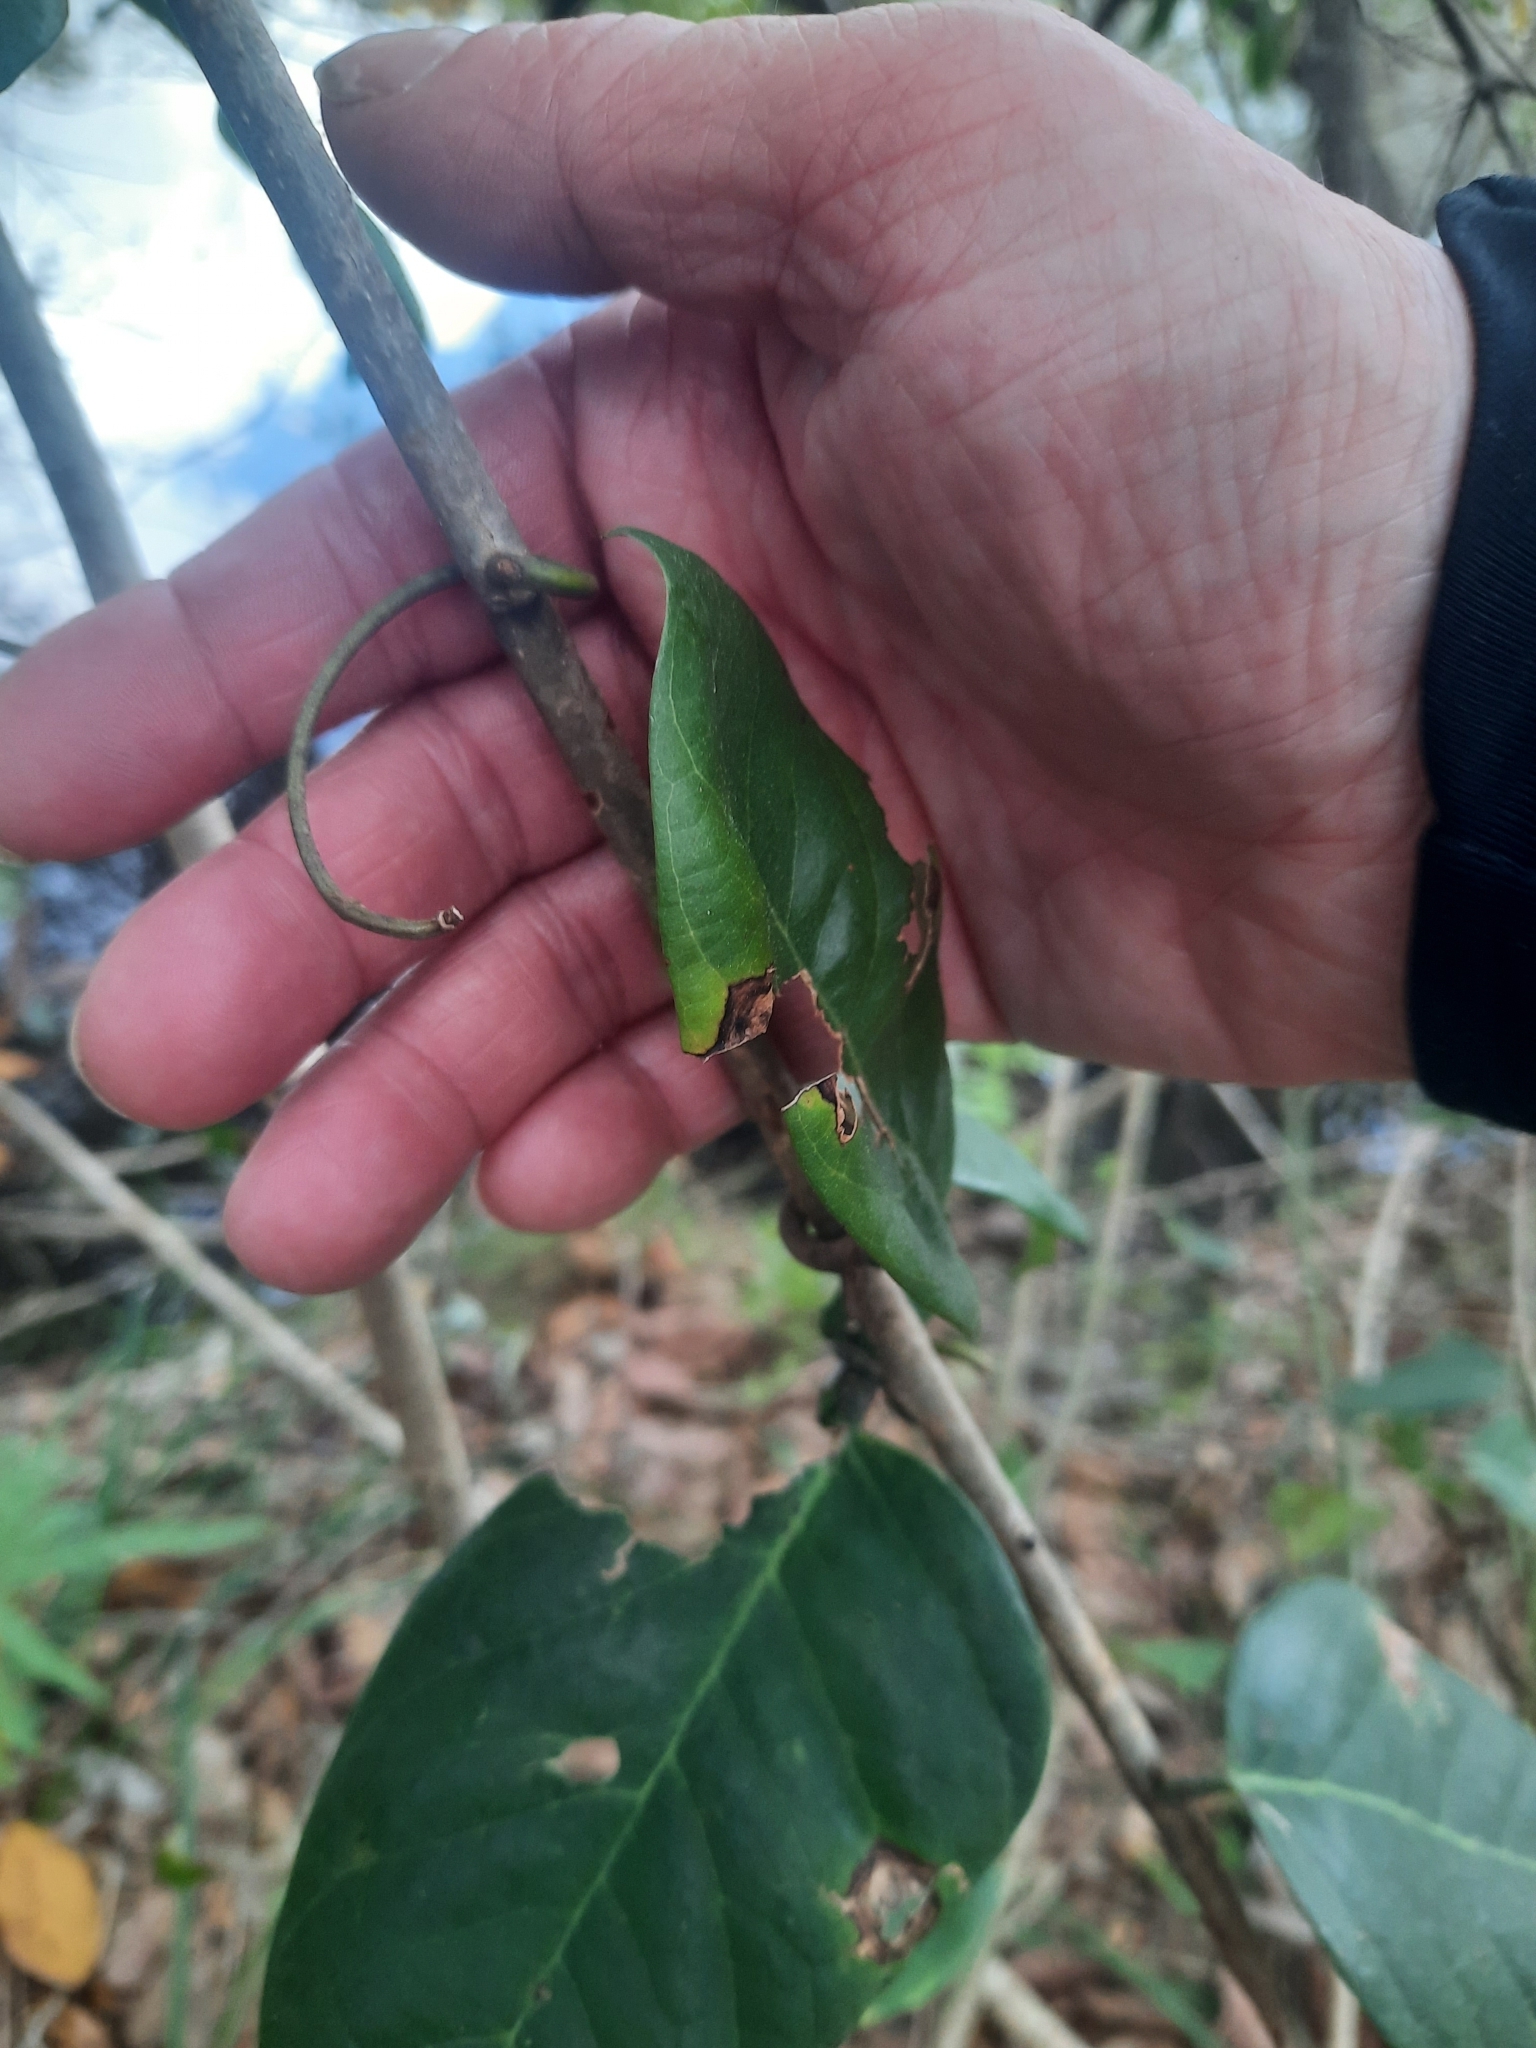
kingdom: Plantae
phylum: Tracheophyta
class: Magnoliopsida
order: Fabales
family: Fabaceae
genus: Dalbergia
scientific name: Dalbergia ecastaphyllum
